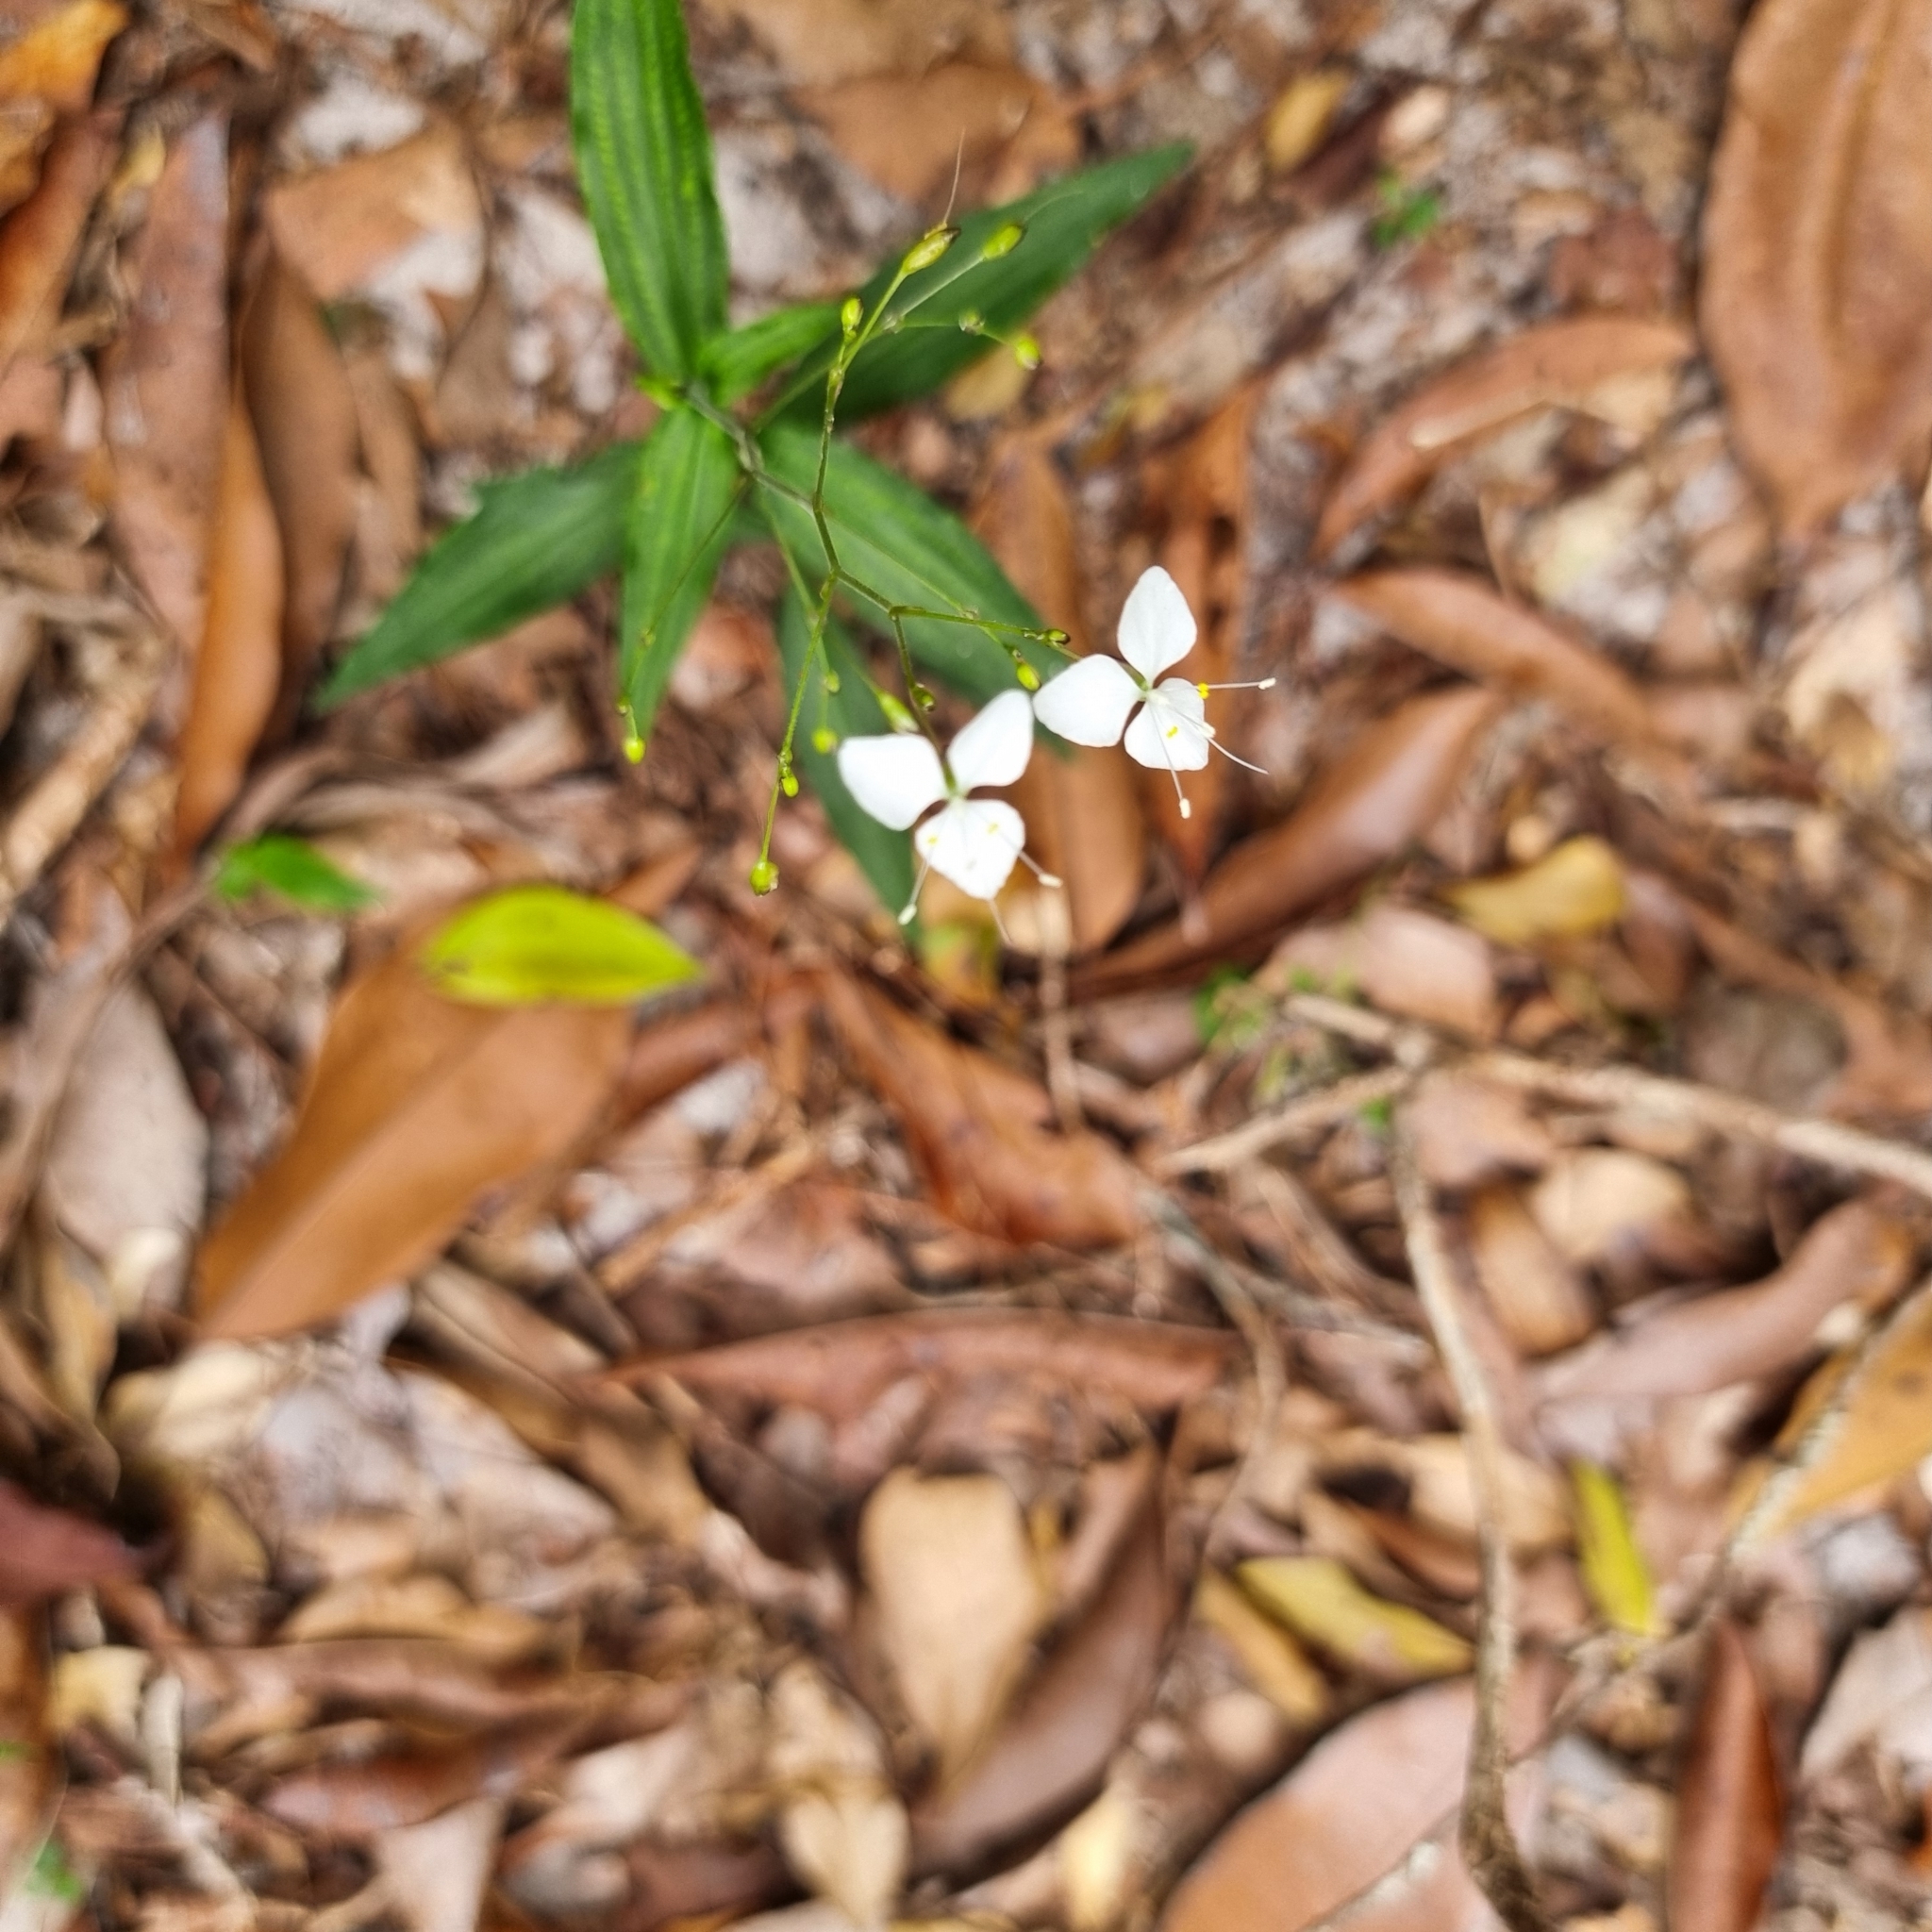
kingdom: Plantae
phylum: Tracheophyta
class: Liliopsida
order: Commelinales
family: Commelinaceae
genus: Aneilema
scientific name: Aneilema acuminatum
